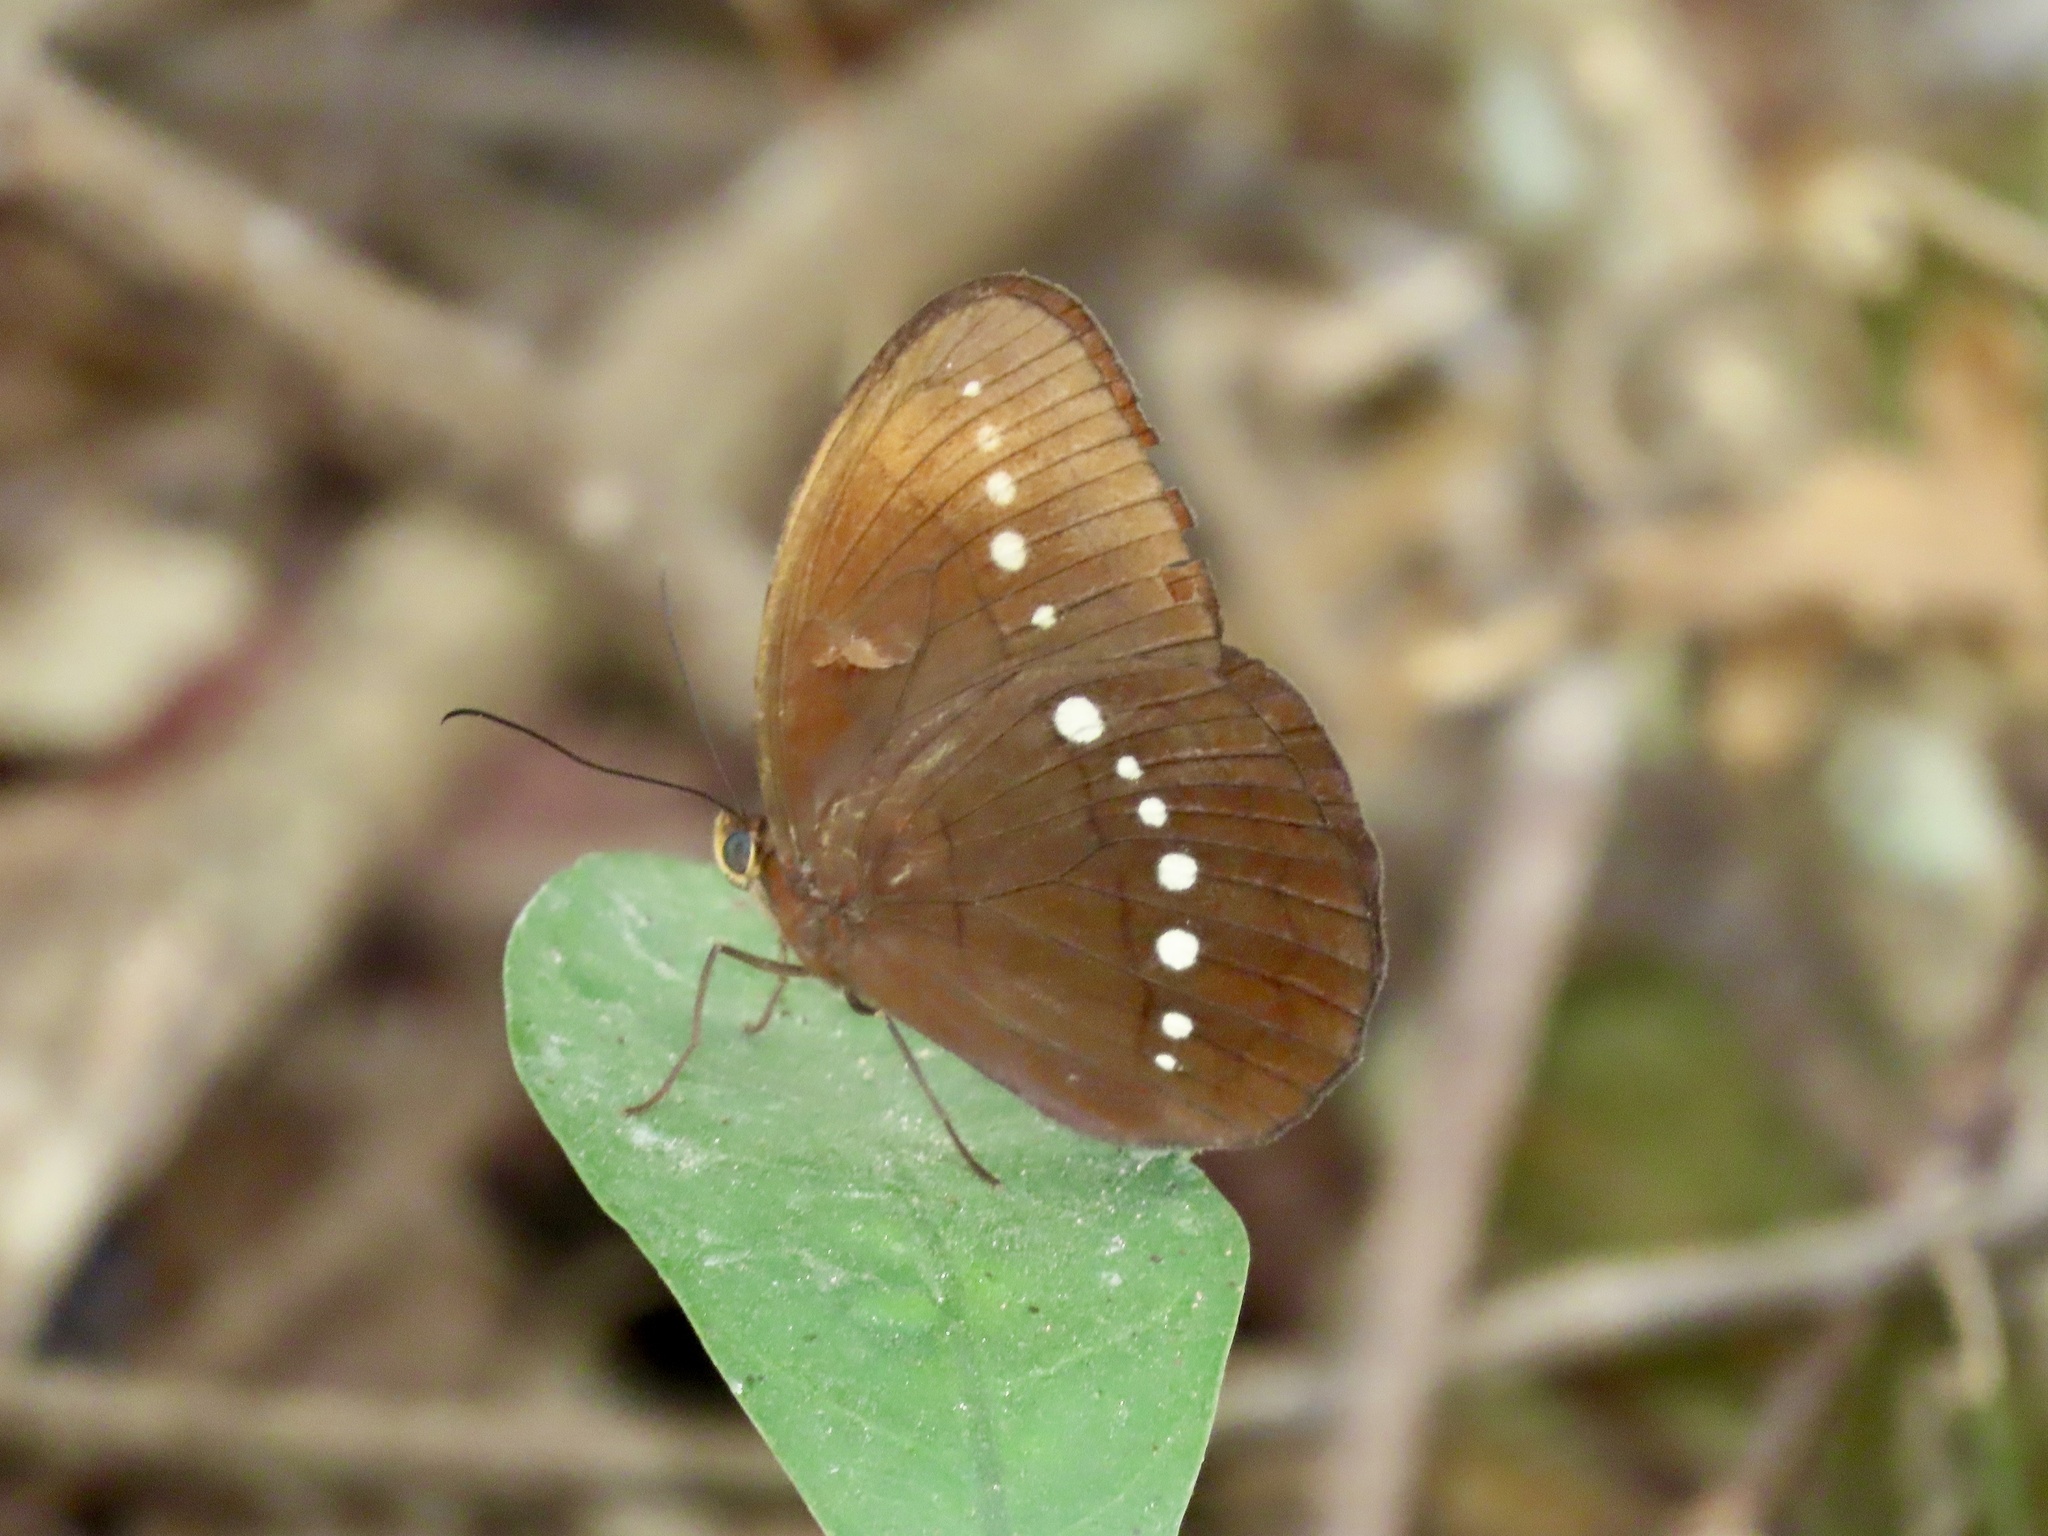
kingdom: Animalia
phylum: Arthropoda
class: Insecta
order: Lepidoptera
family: Nymphalidae
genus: Faunis
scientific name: Faunis eumeus
